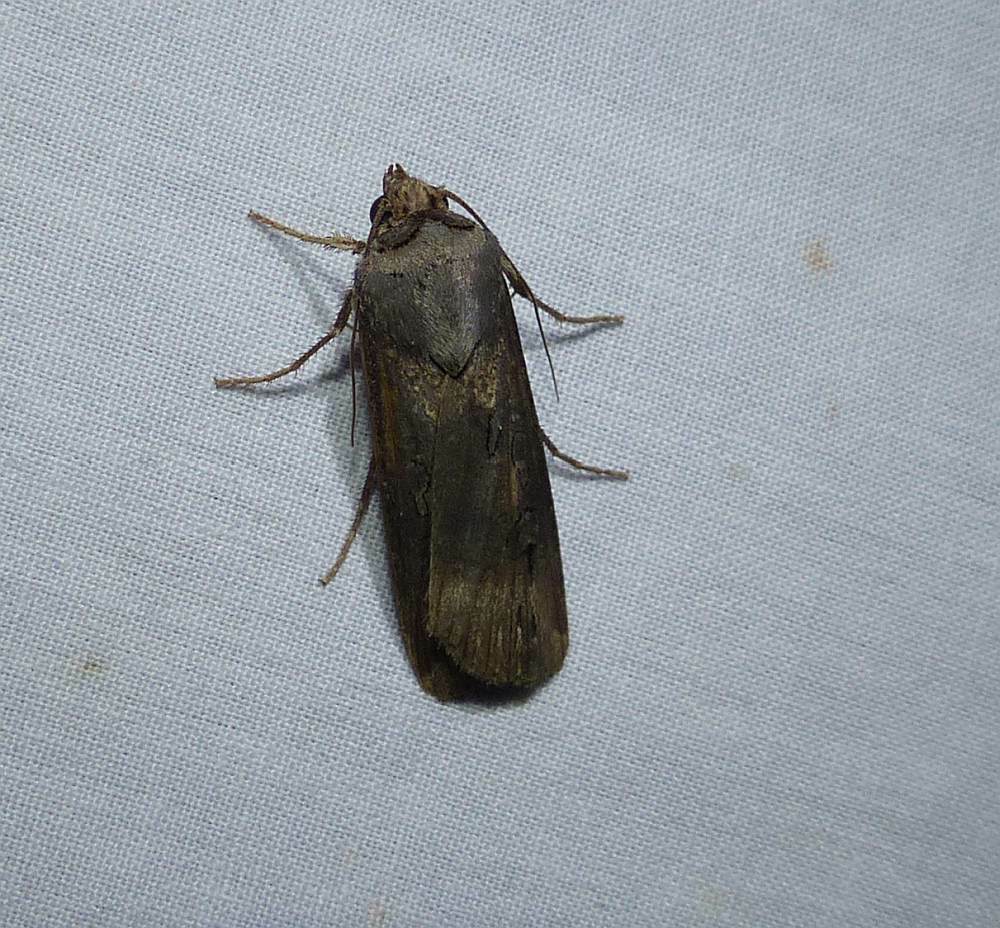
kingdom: Animalia
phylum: Arthropoda
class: Insecta
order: Lepidoptera
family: Noctuidae
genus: Agrotis
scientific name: Agrotis ipsilon
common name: Dark sword-grass
